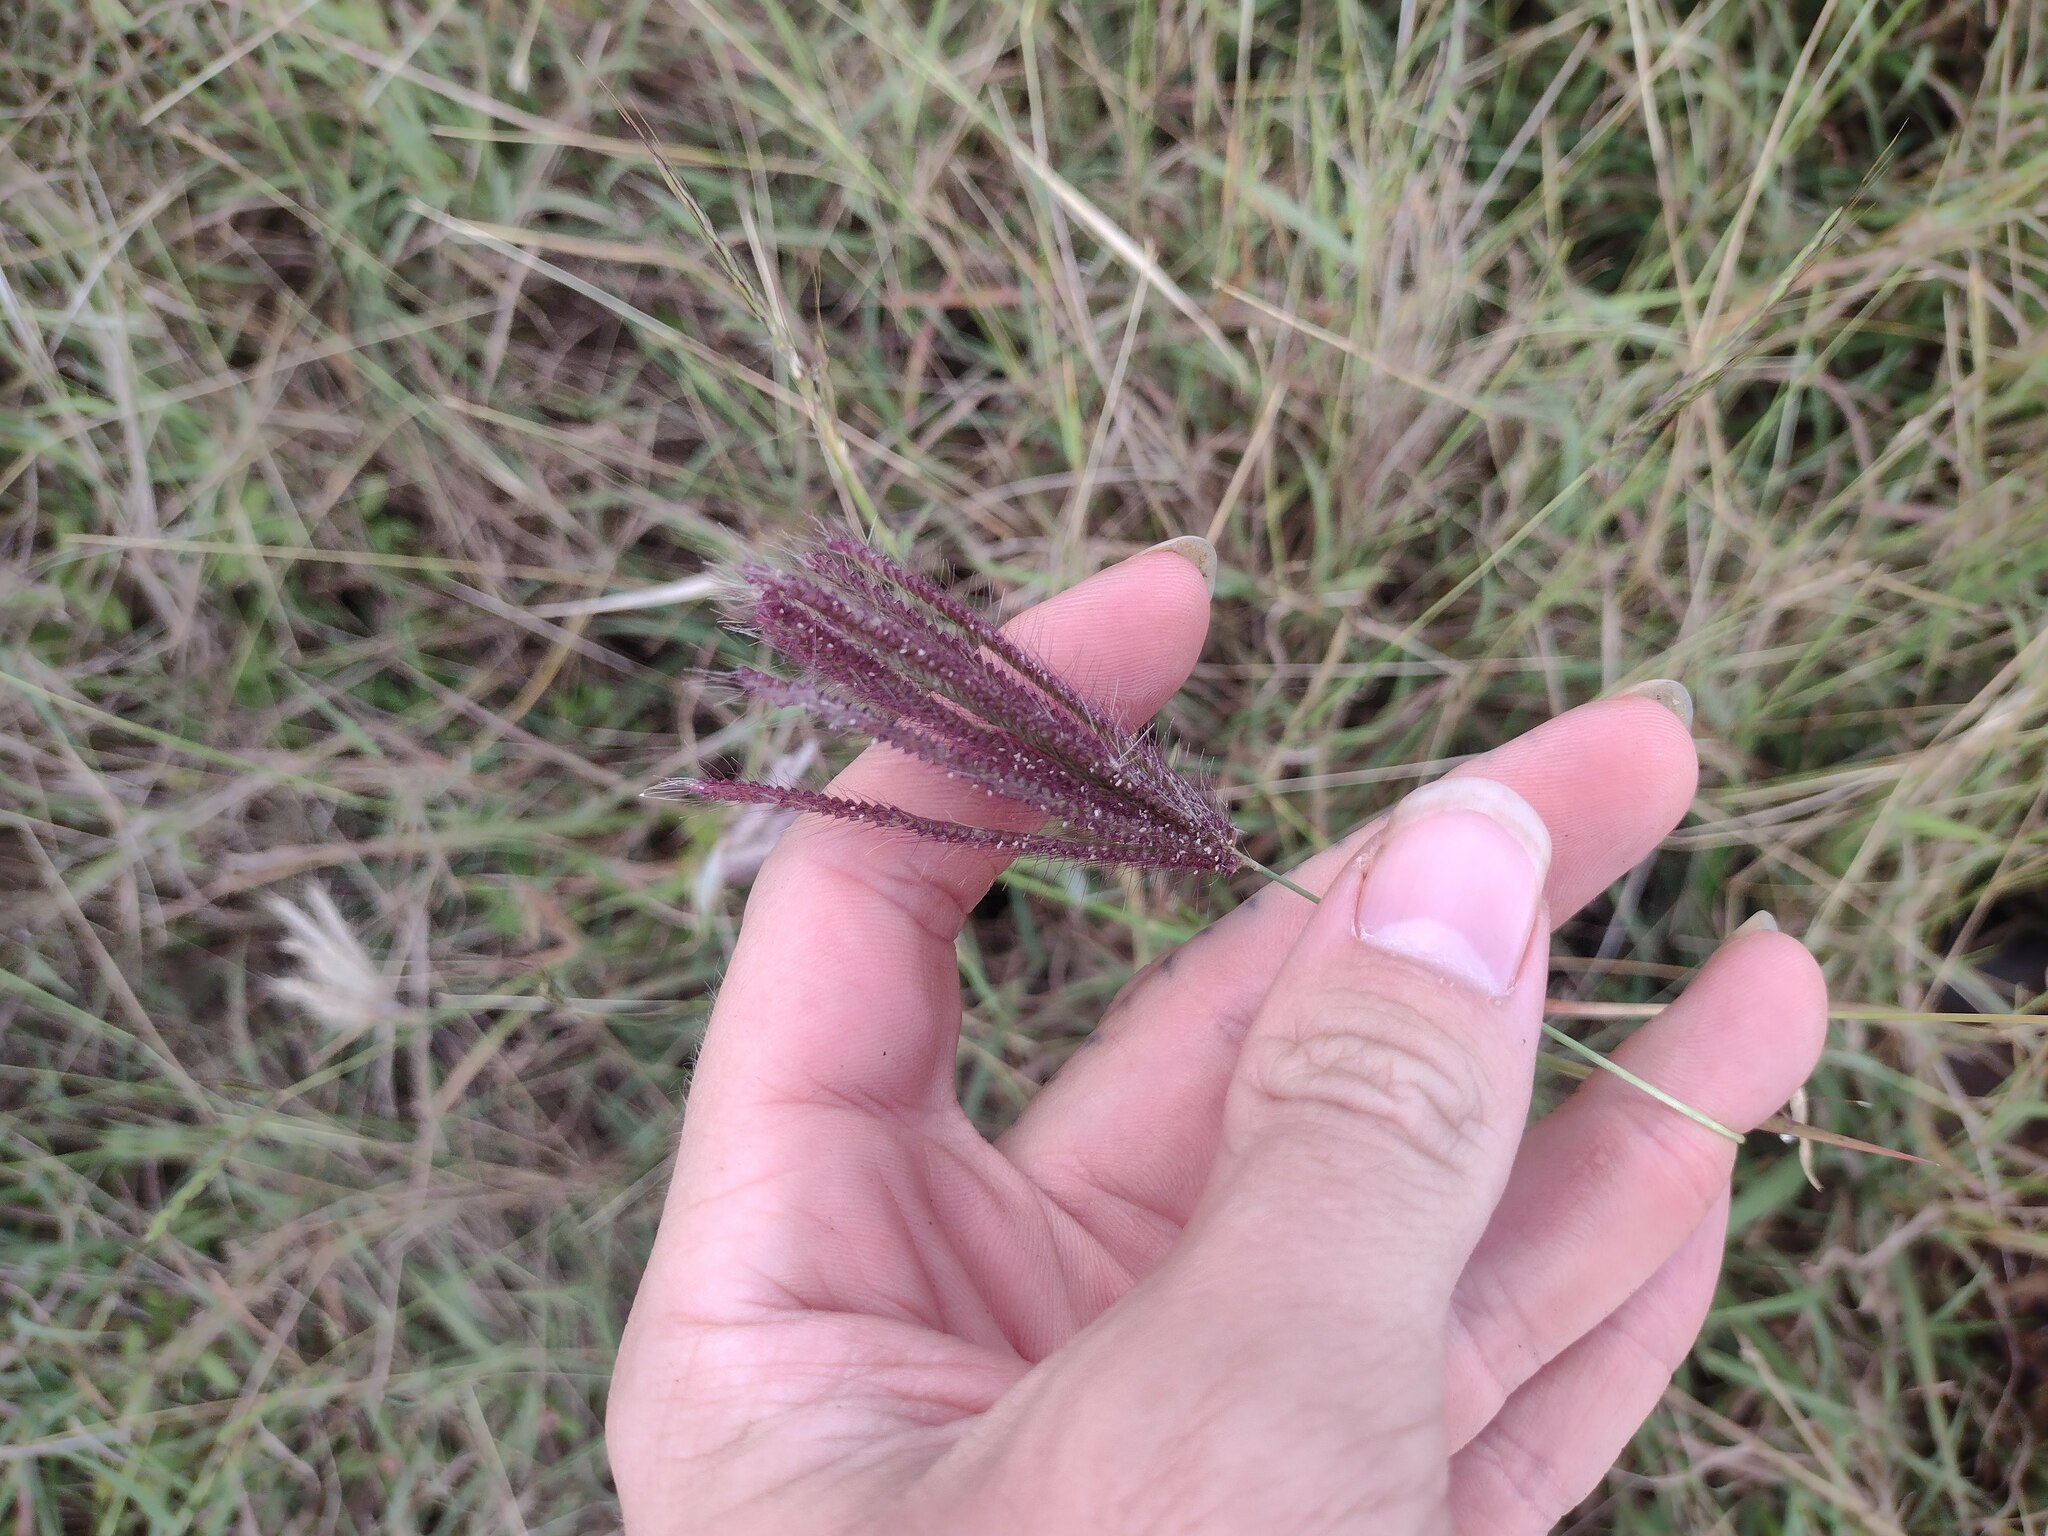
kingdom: Plantae
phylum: Tracheophyta
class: Liliopsida
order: Poales
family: Poaceae
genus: Chloris
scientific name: Chloris barbata
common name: Swollen fingergrass
